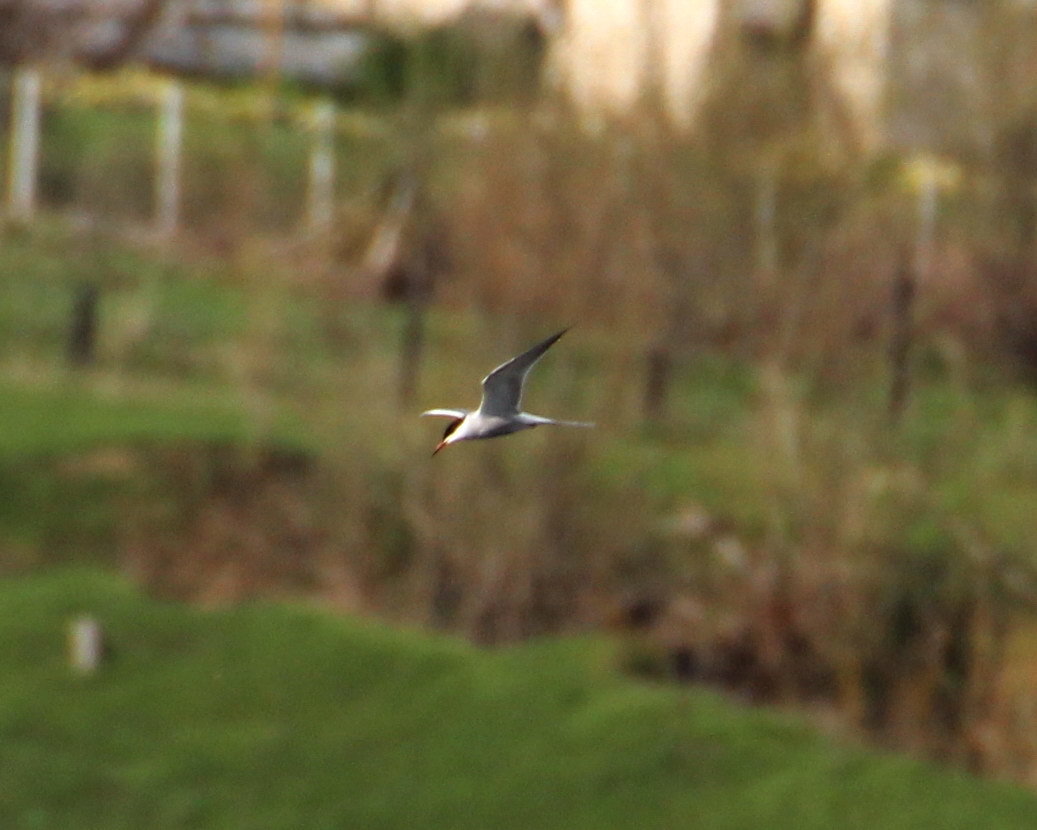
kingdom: Animalia
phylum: Chordata
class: Aves
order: Charadriiformes
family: Laridae
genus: Sterna
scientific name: Sterna hirundo
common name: Common tern
